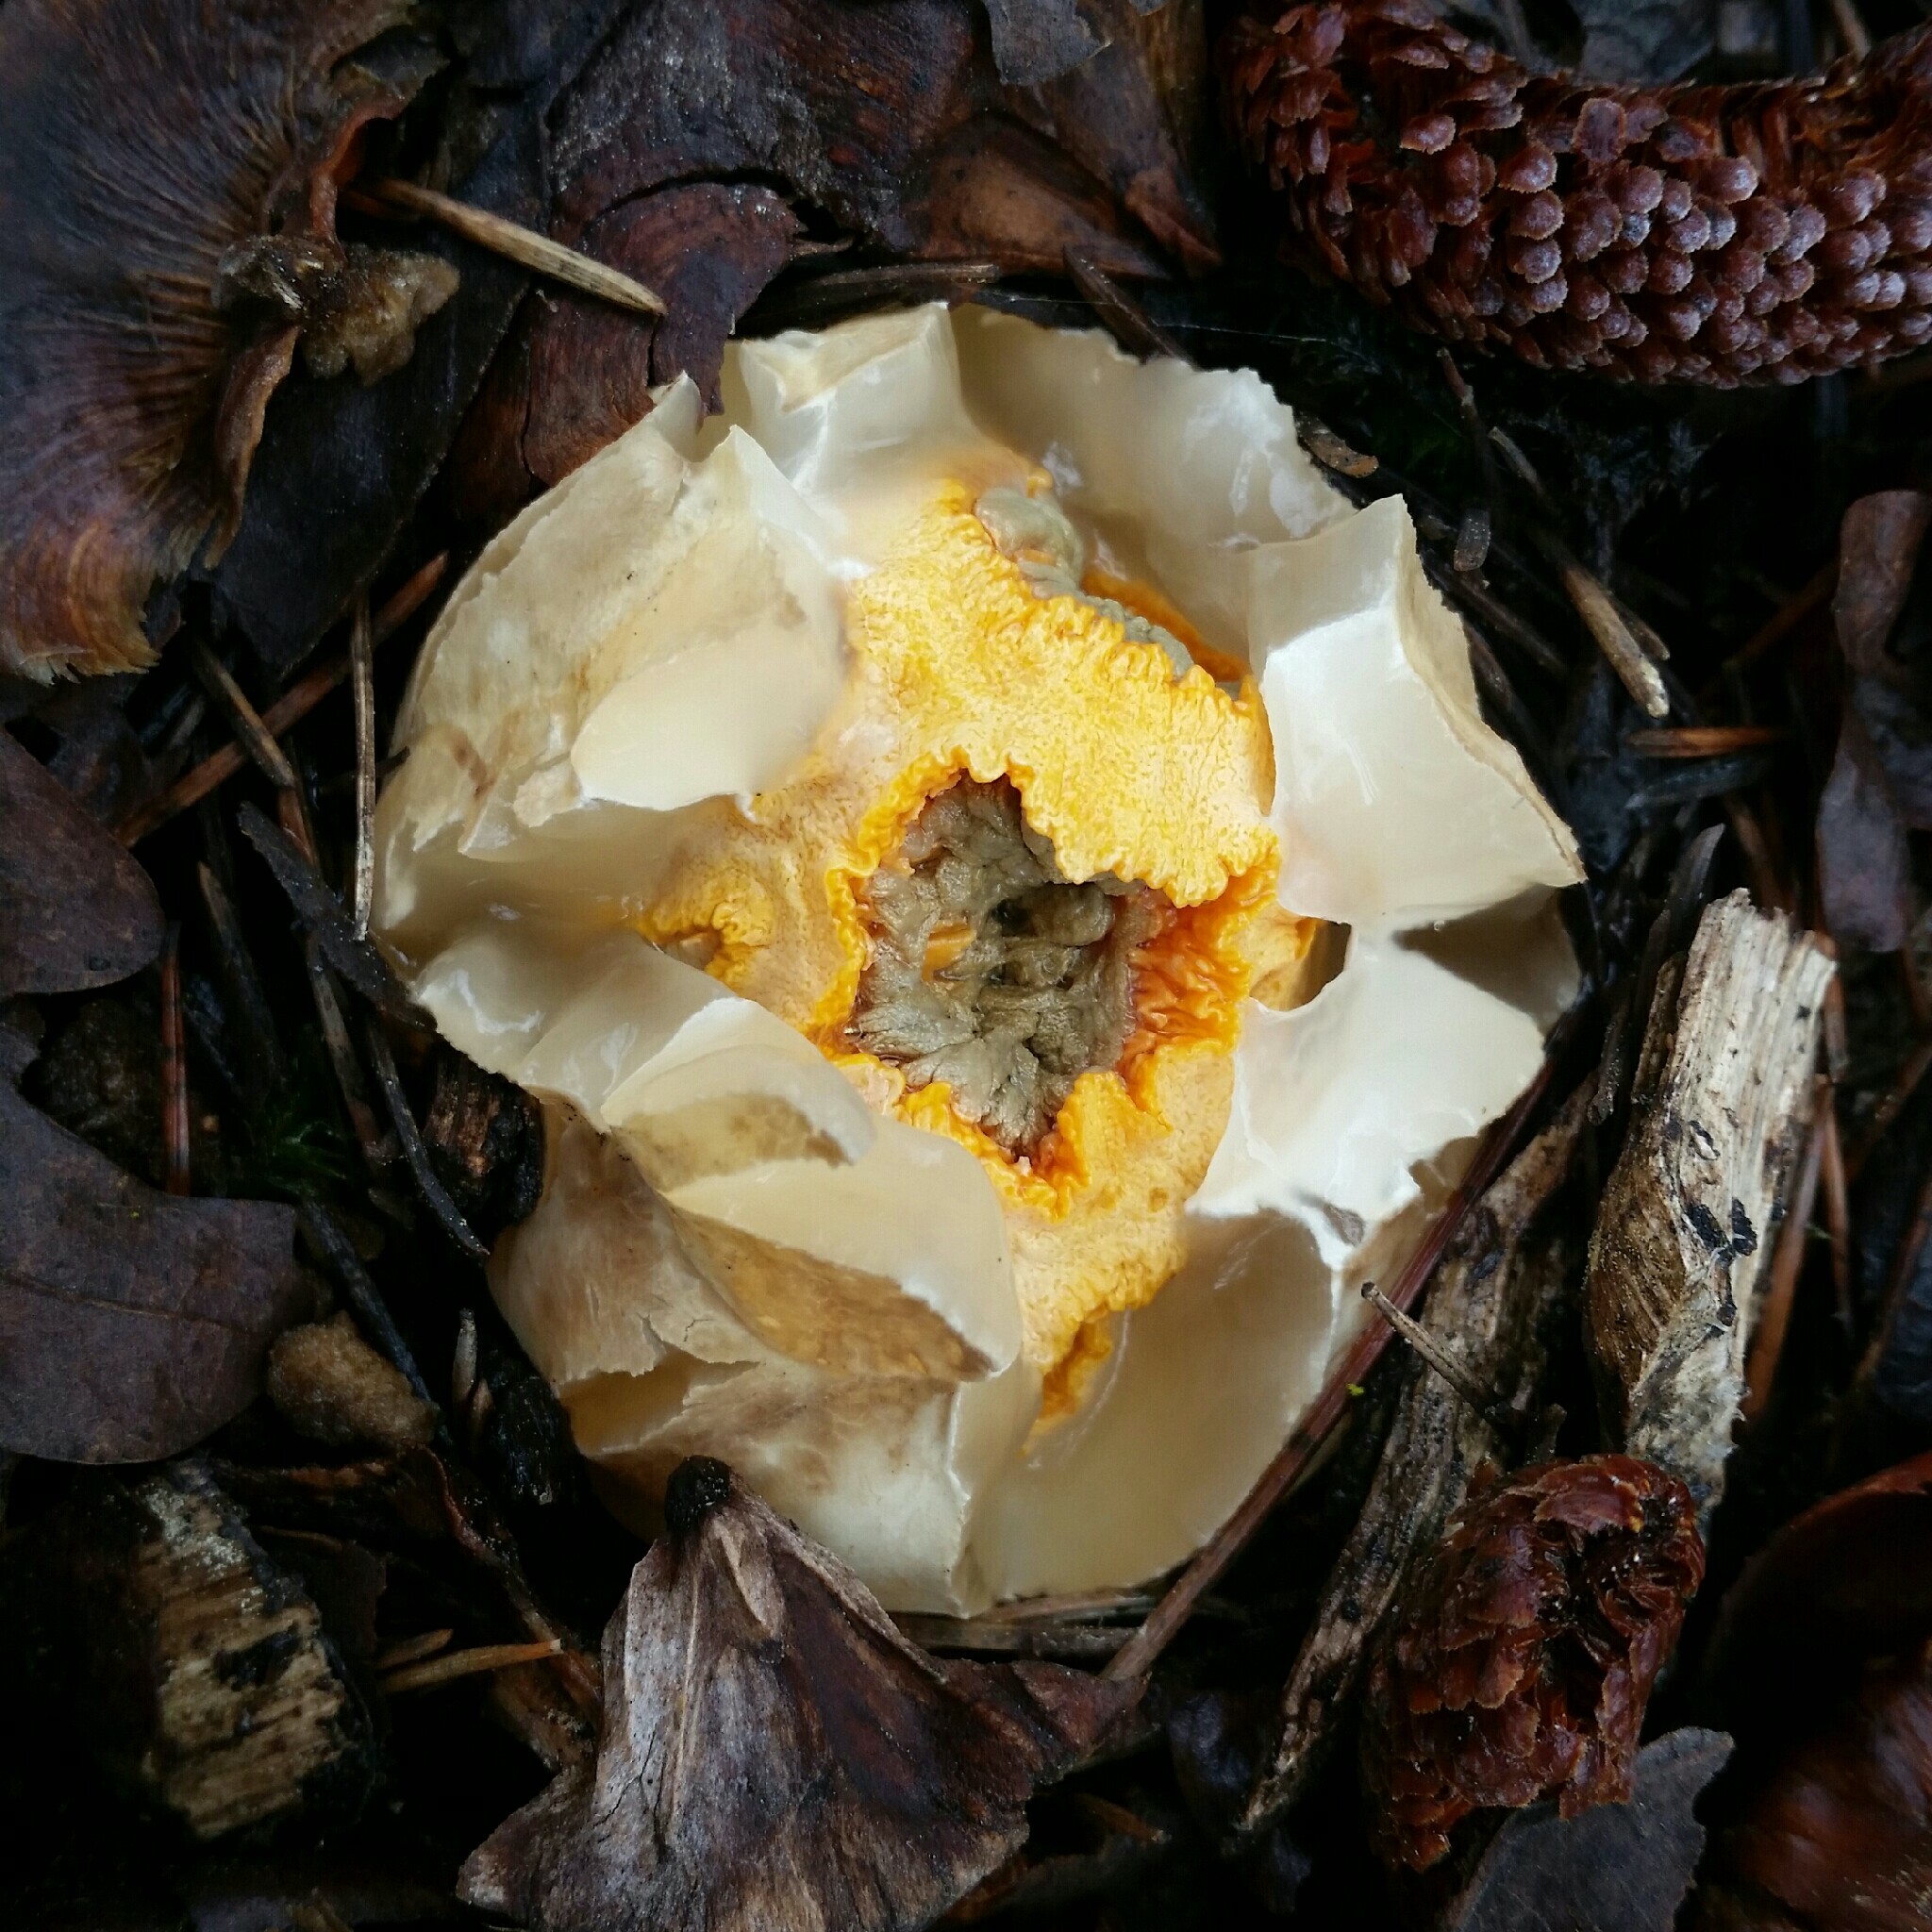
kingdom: Fungi
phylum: Basidiomycota
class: Agaricomycetes
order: Phallales
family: Phallaceae
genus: Clathrus
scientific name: Clathrus ruber
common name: Red cage
